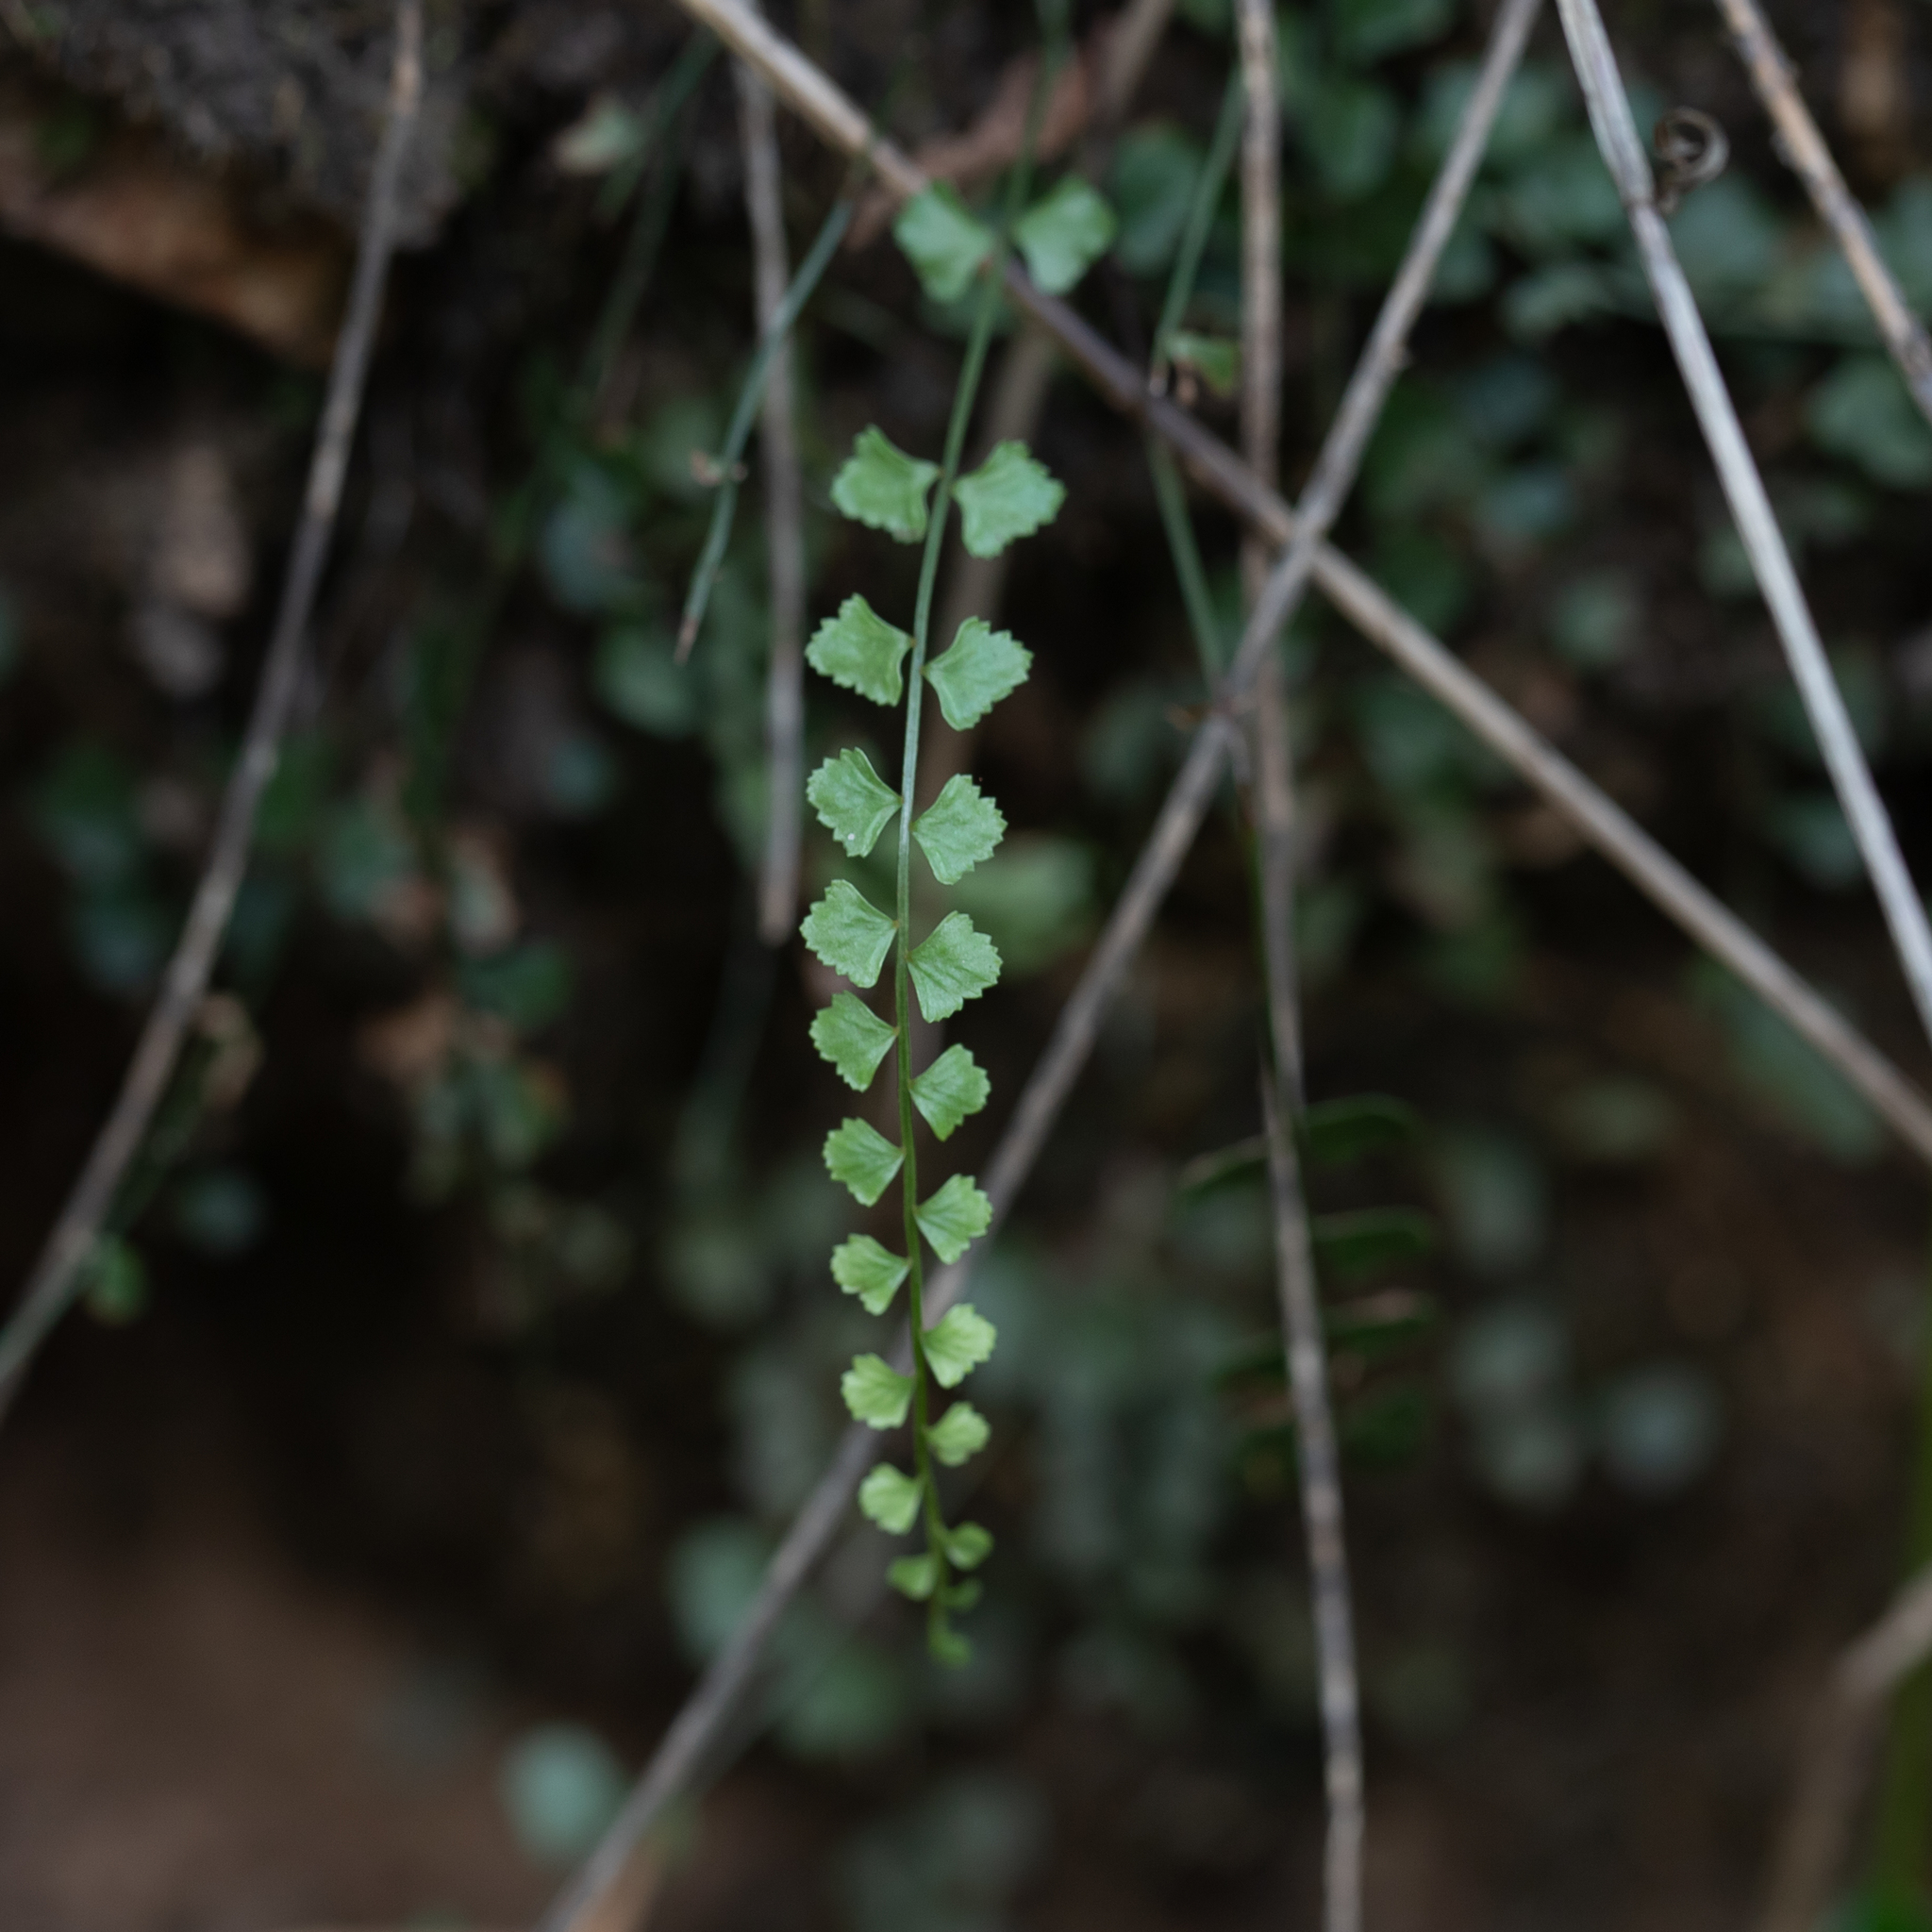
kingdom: Plantae
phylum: Tracheophyta
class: Polypodiopsida
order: Polypodiales
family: Aspleniaceae
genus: Asplenium
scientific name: Asplenium flabellifolium
